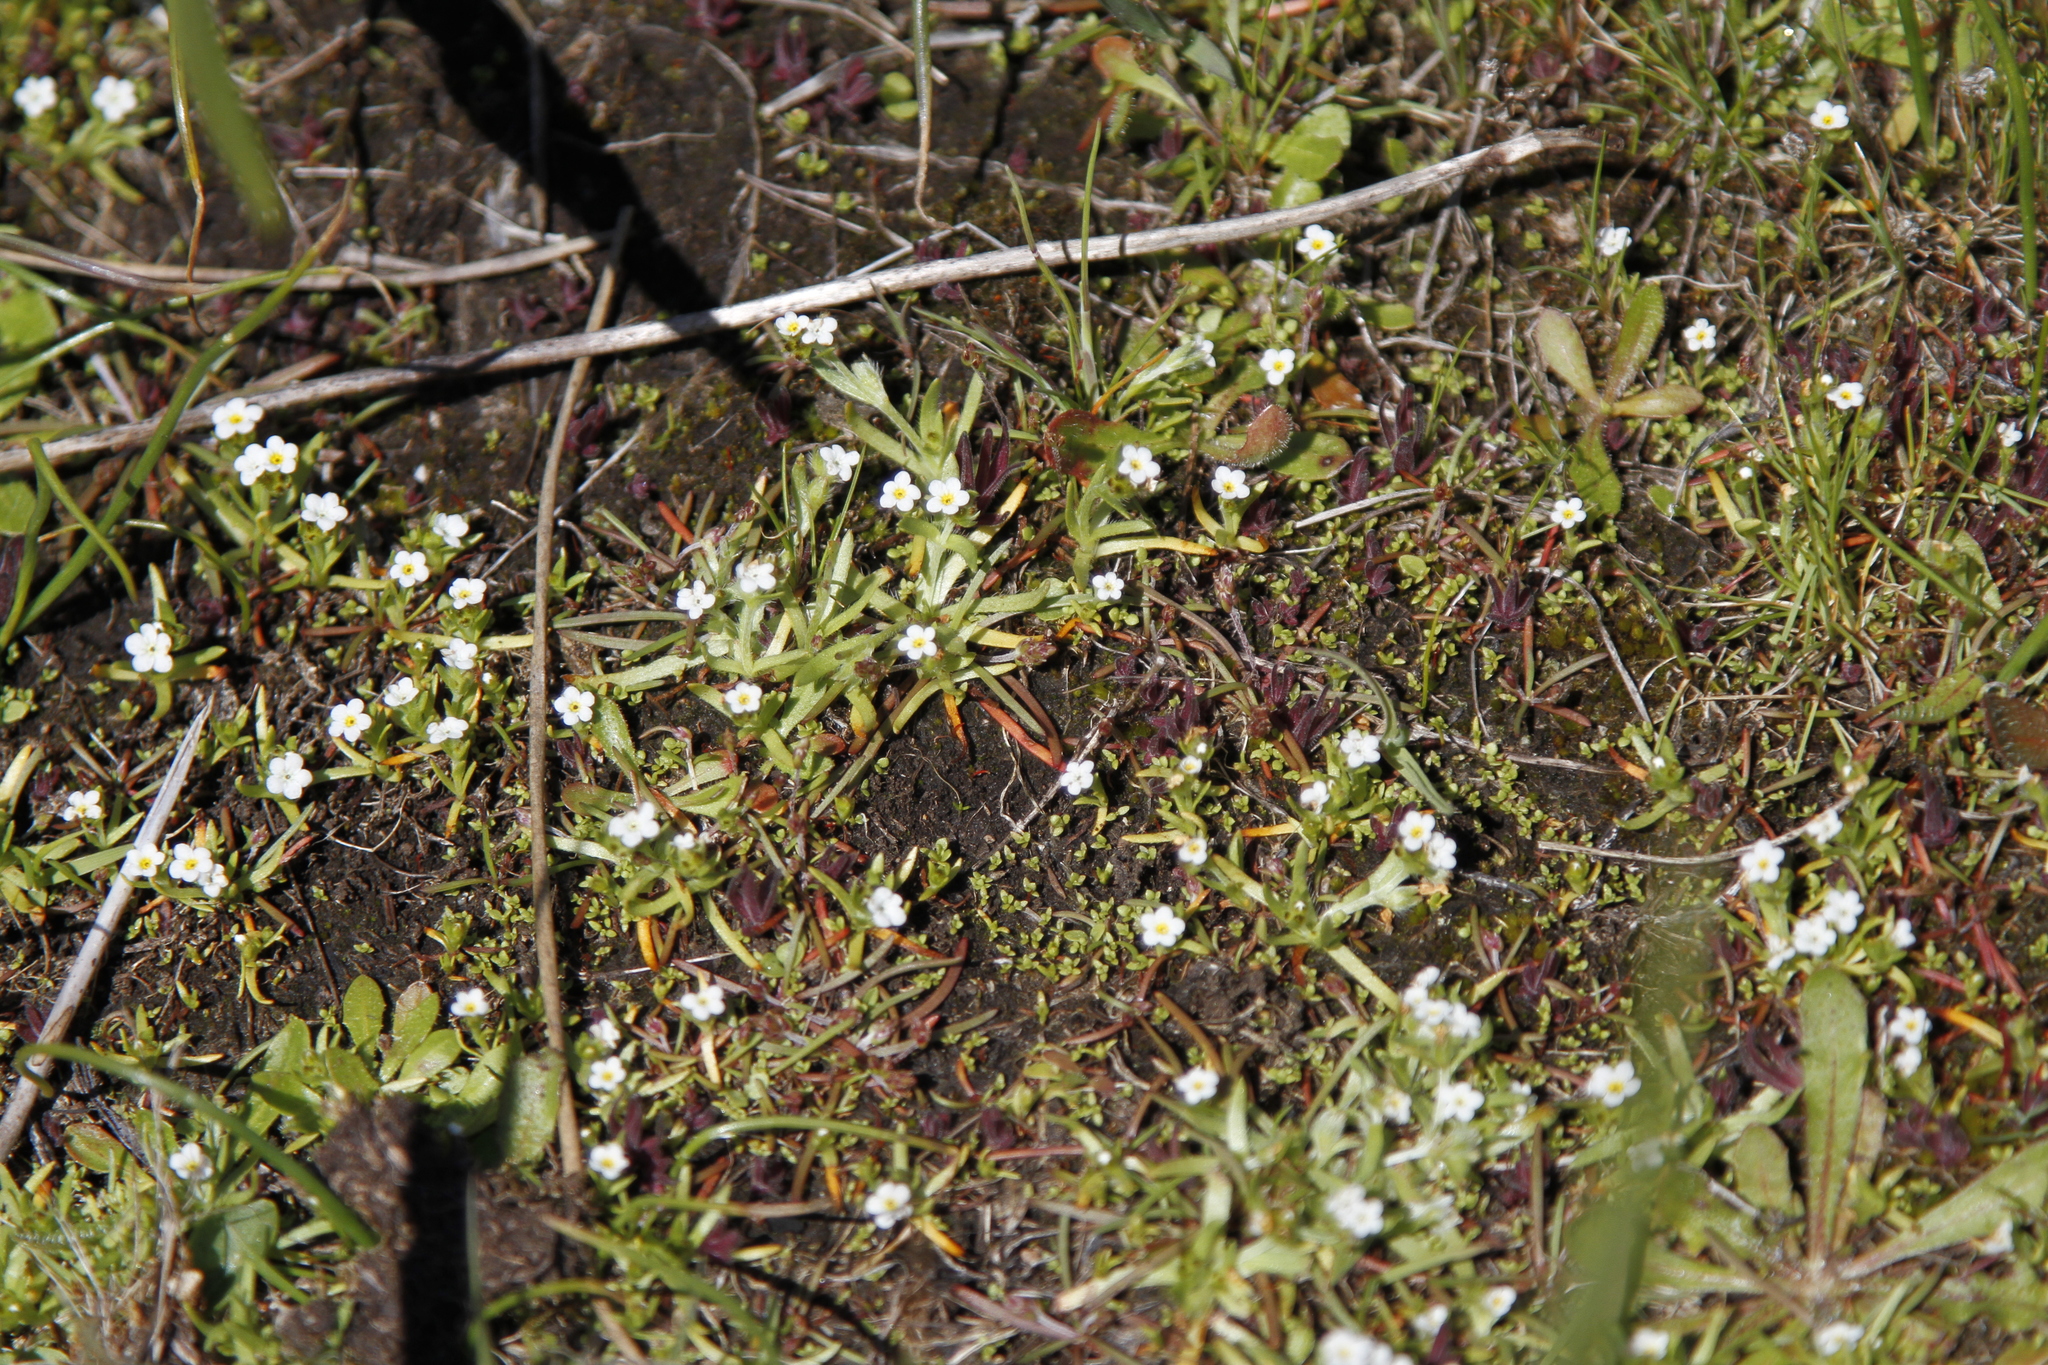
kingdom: Plantae
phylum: Tracheophyta
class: Magnoliopsida
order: Boraginales
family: Boraginaceae
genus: Plagiobothrys
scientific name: Plagiobothrys scouleri
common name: White forget-me-not
